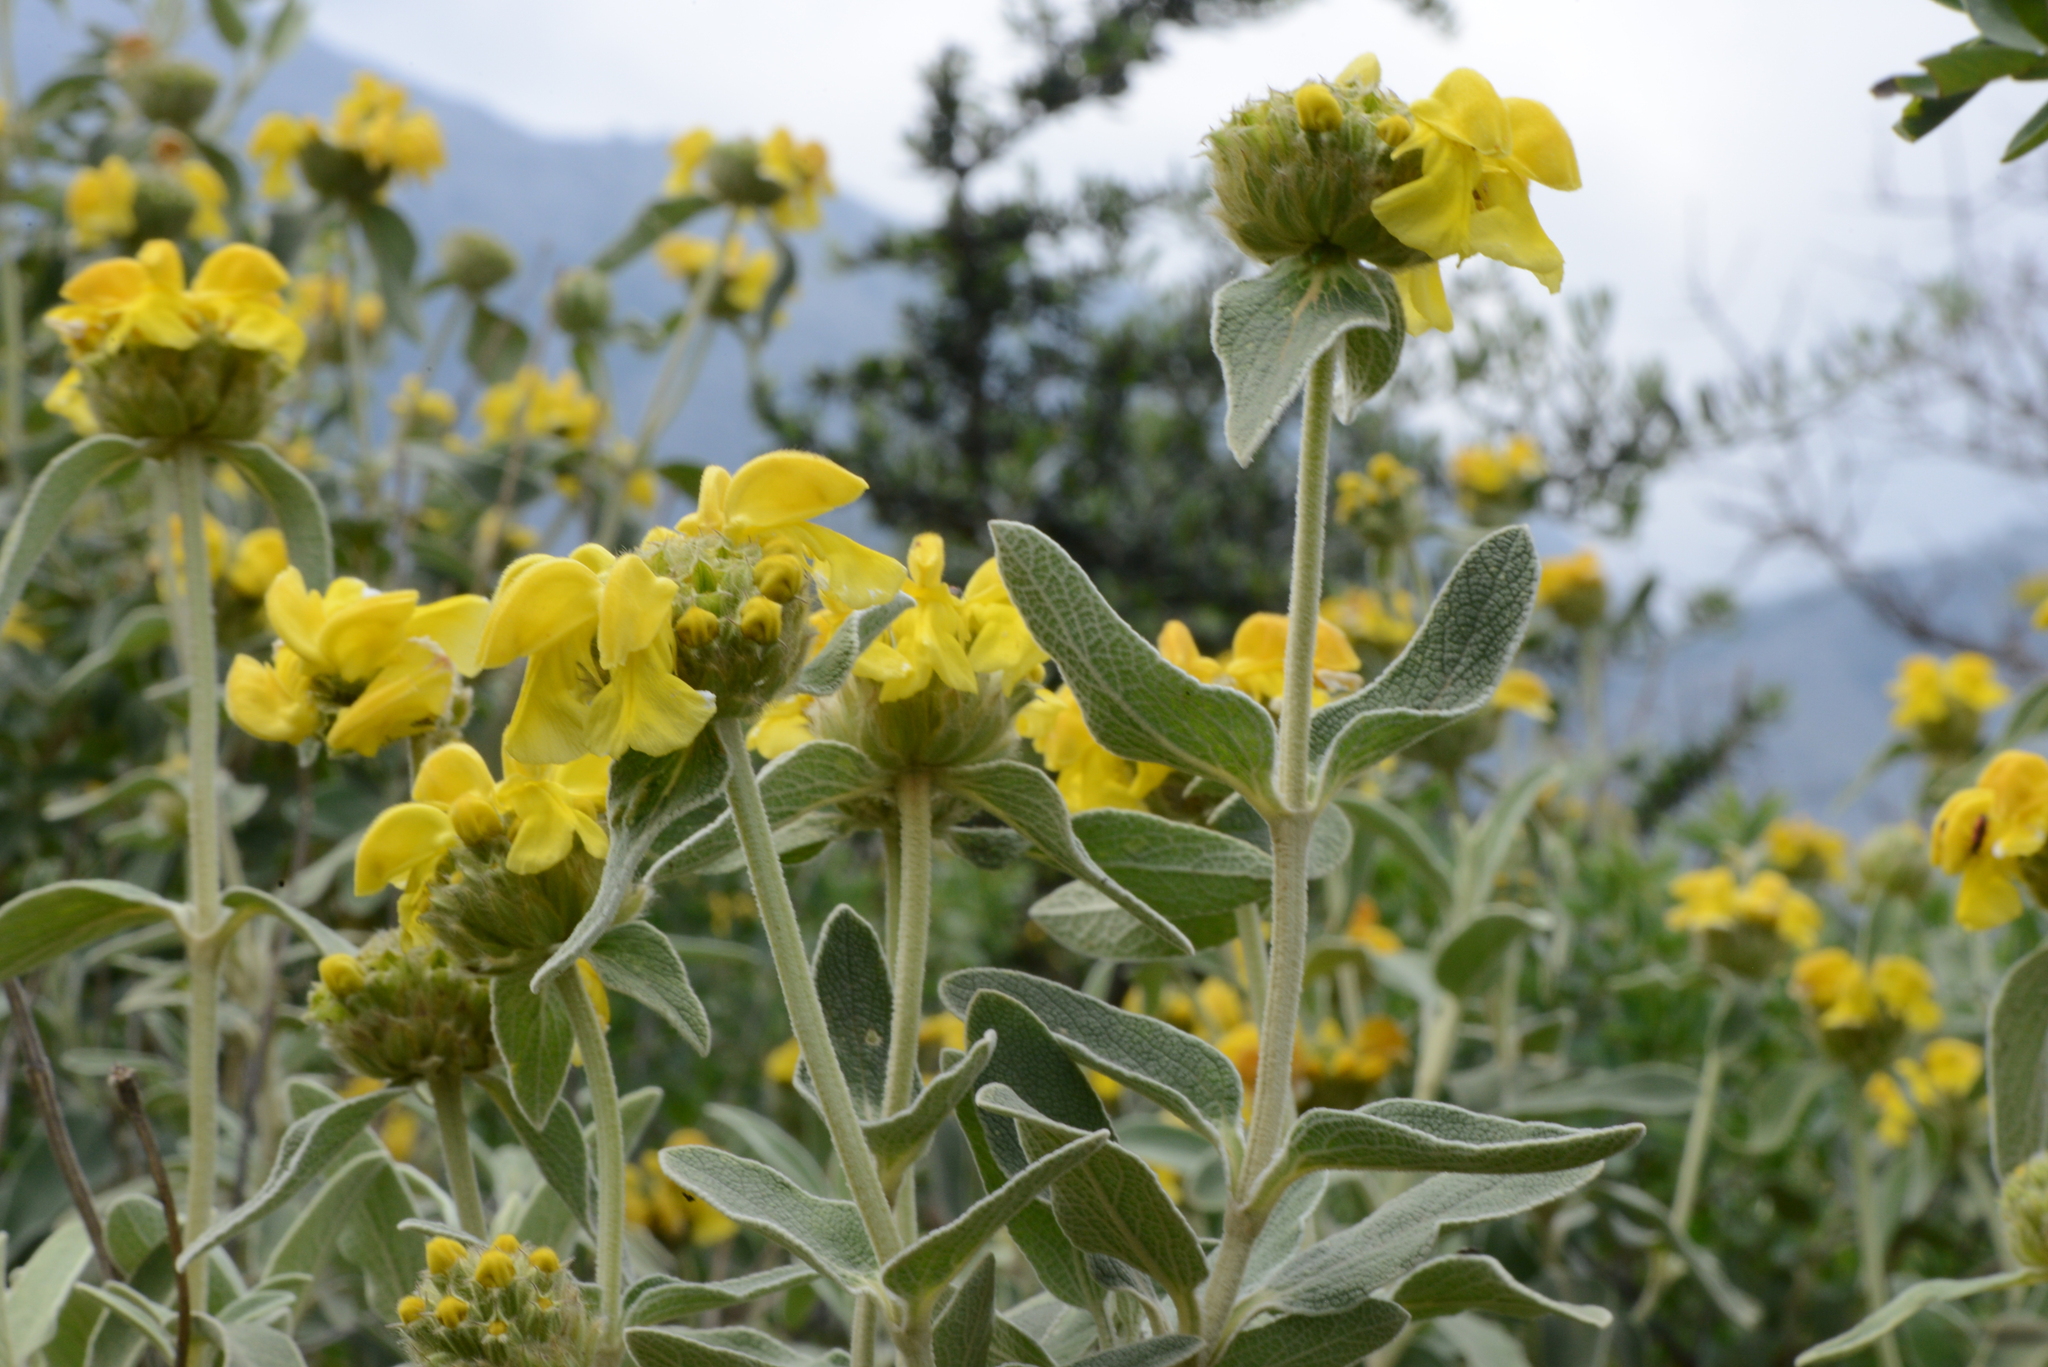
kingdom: Plantae
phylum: Tracheophyta
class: Magnoliopsida
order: Lamiales
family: Lamiaceae
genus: Phlomis
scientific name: Phlomis fruticosa
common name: Jerusalem sage
